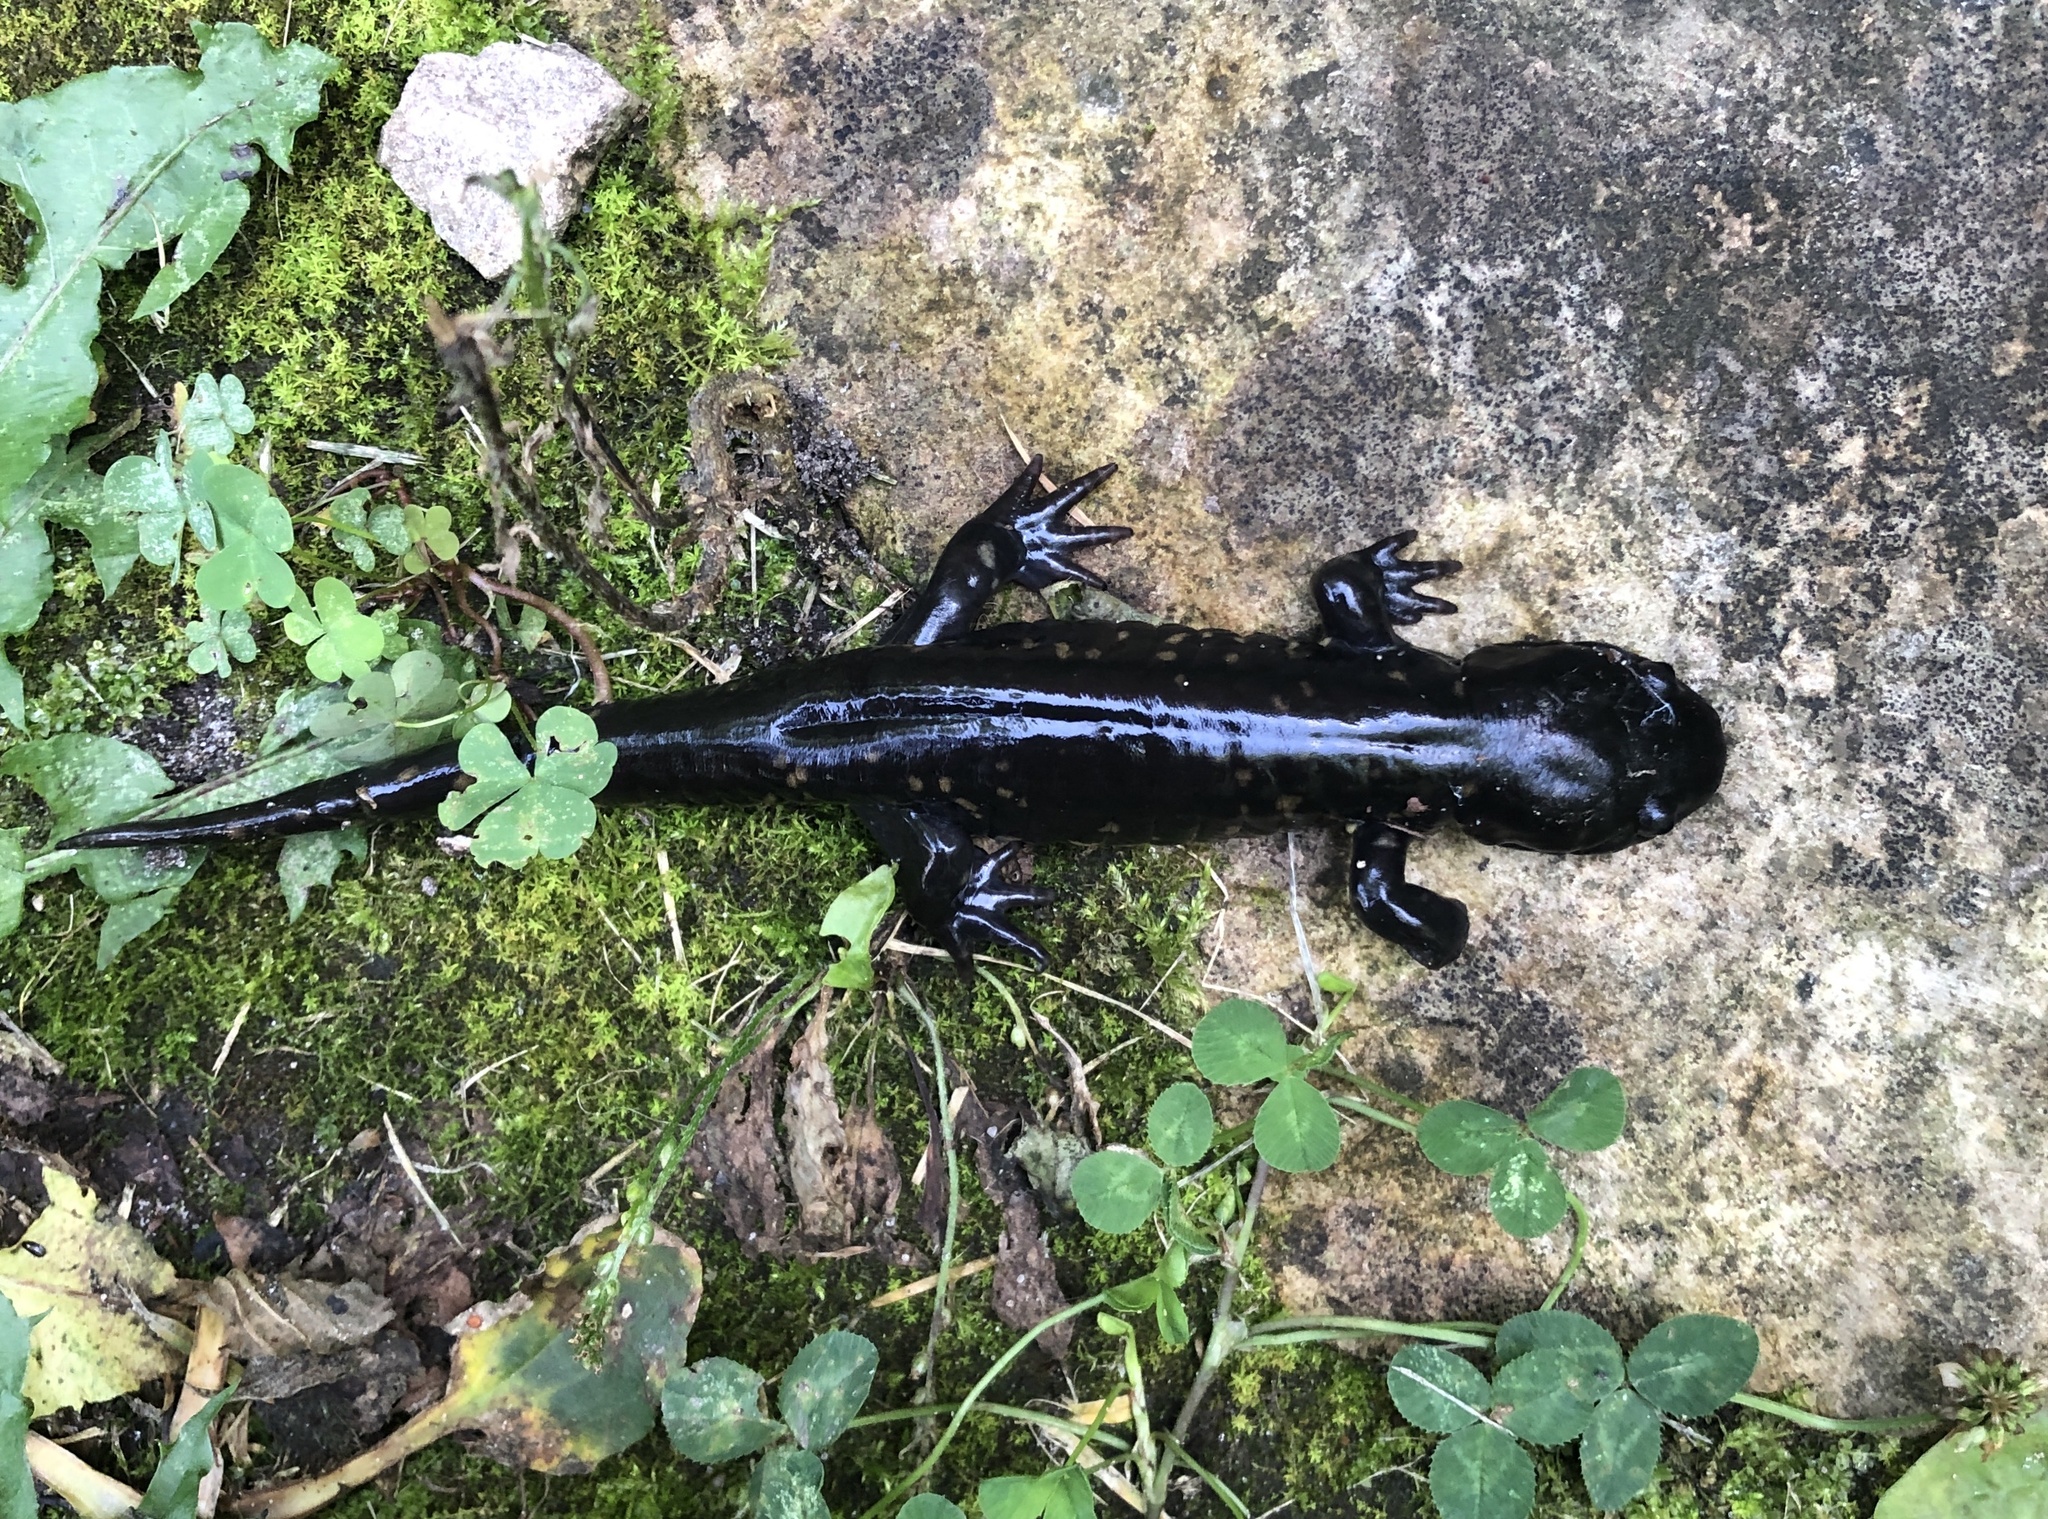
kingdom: Animalia
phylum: Chordata
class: Amphibia
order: Caudata
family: Ambystomatidae
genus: Ambystoma
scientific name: Ambystoma tigrinum
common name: Tiger salamander
